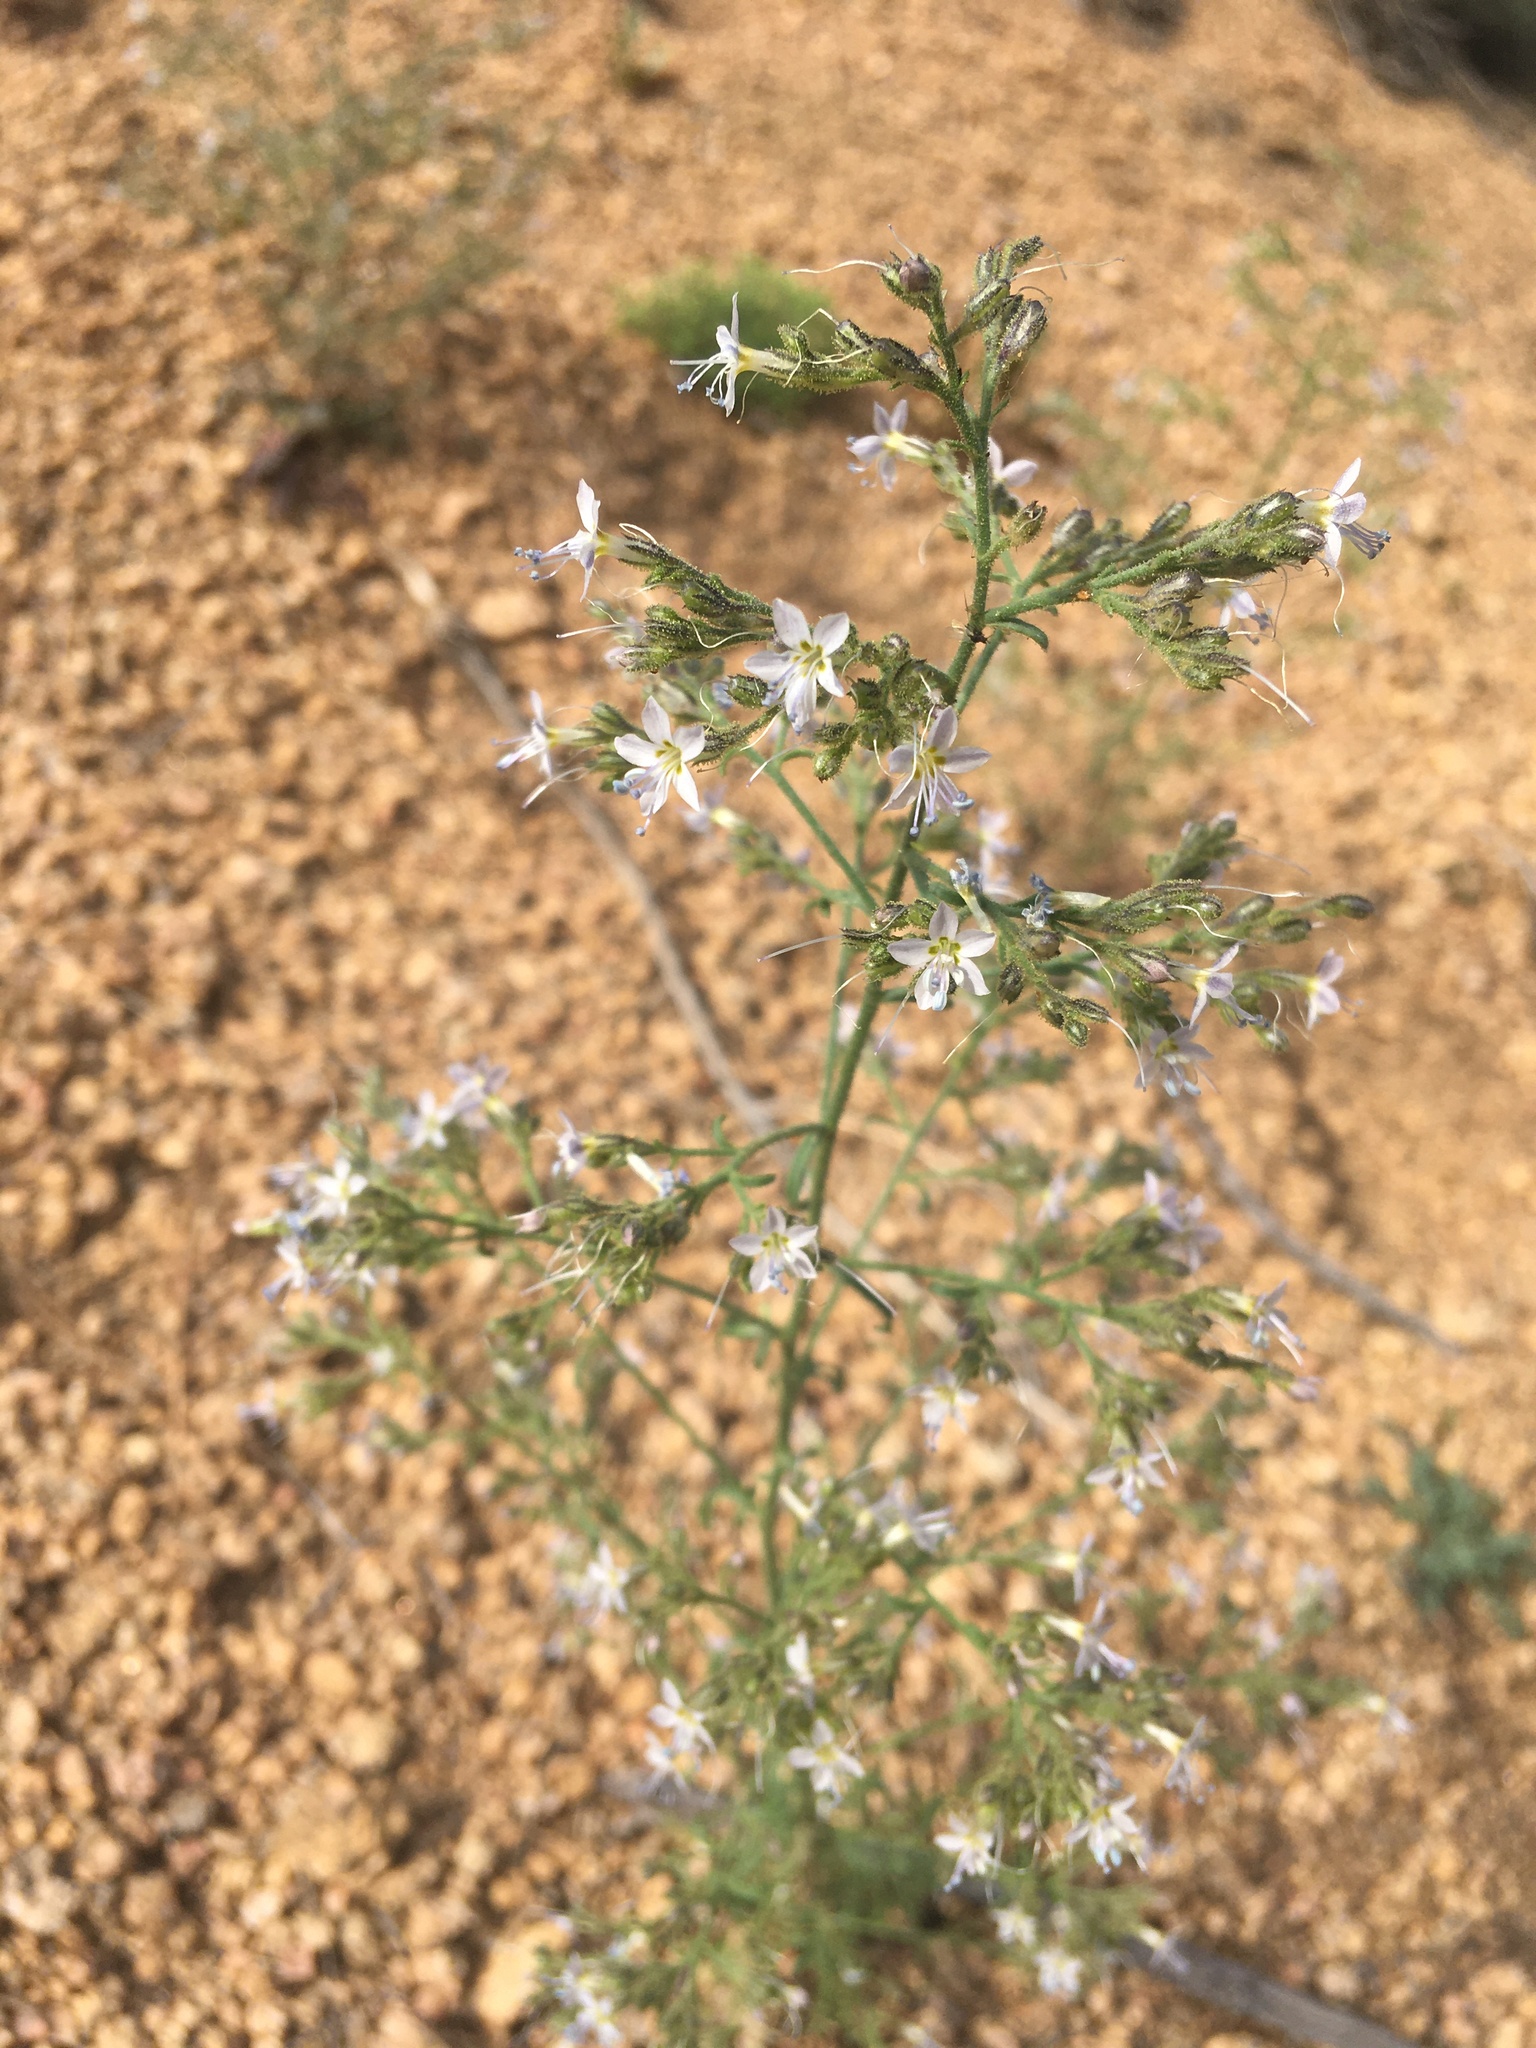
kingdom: Plantae
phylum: Tracheophyta
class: Magnoliopsida
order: Ericales
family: Polemoniaceae
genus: Aliciella
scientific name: Aliciella pinnatifida
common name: Sticky gilia
